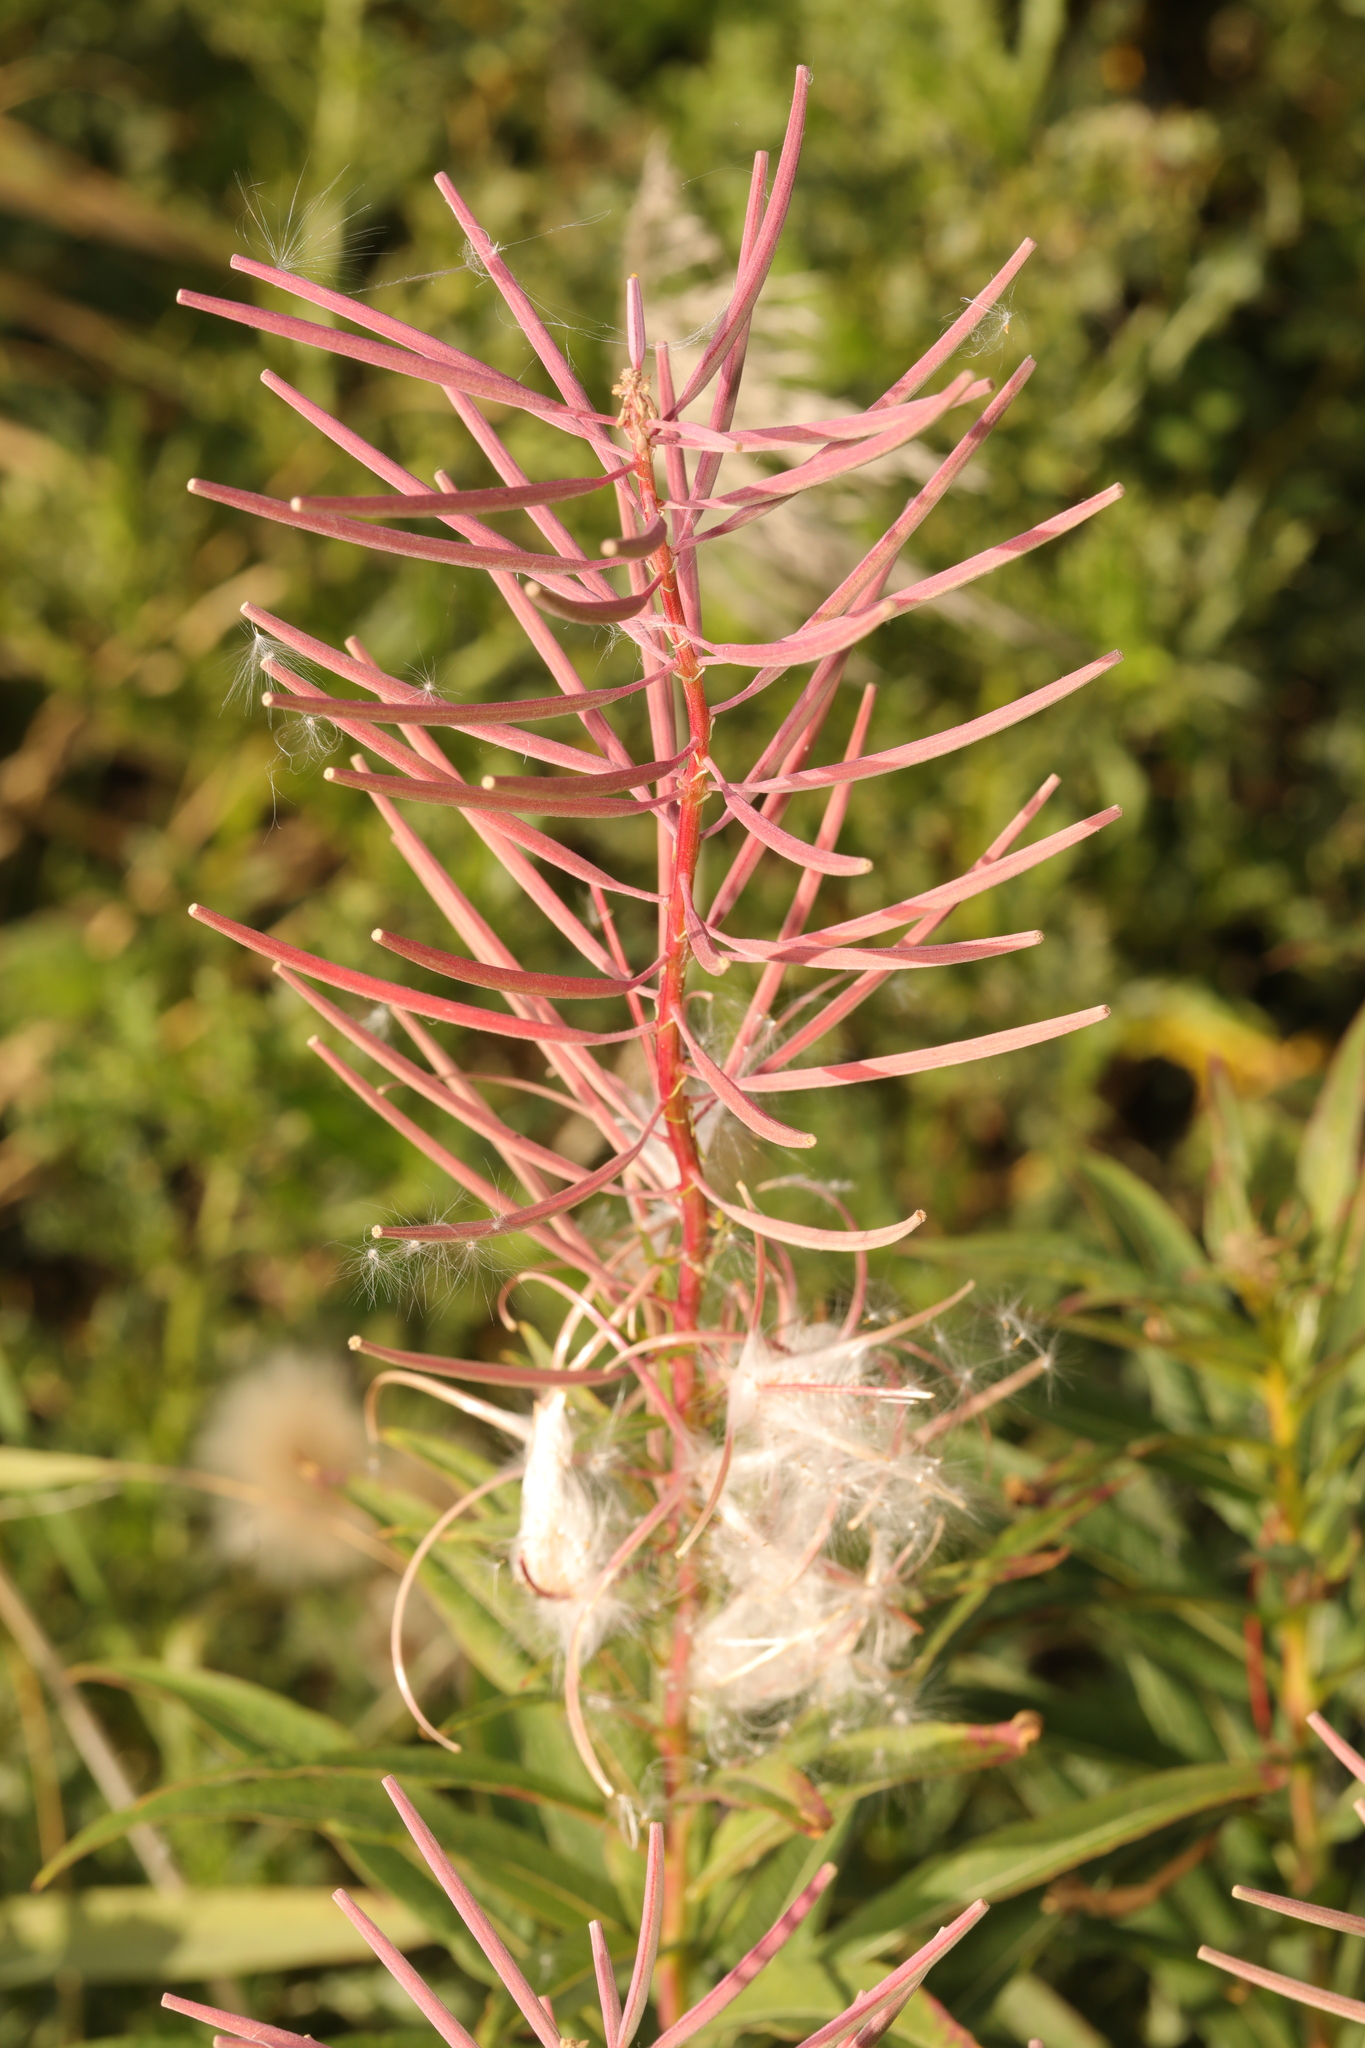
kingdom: Plantae
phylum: Tracheophyta
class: Magnoliopsida
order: Myrtales
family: Onagraceae
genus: Chamaenerion
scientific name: Chamaenerion angustifolium
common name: Fireweed
